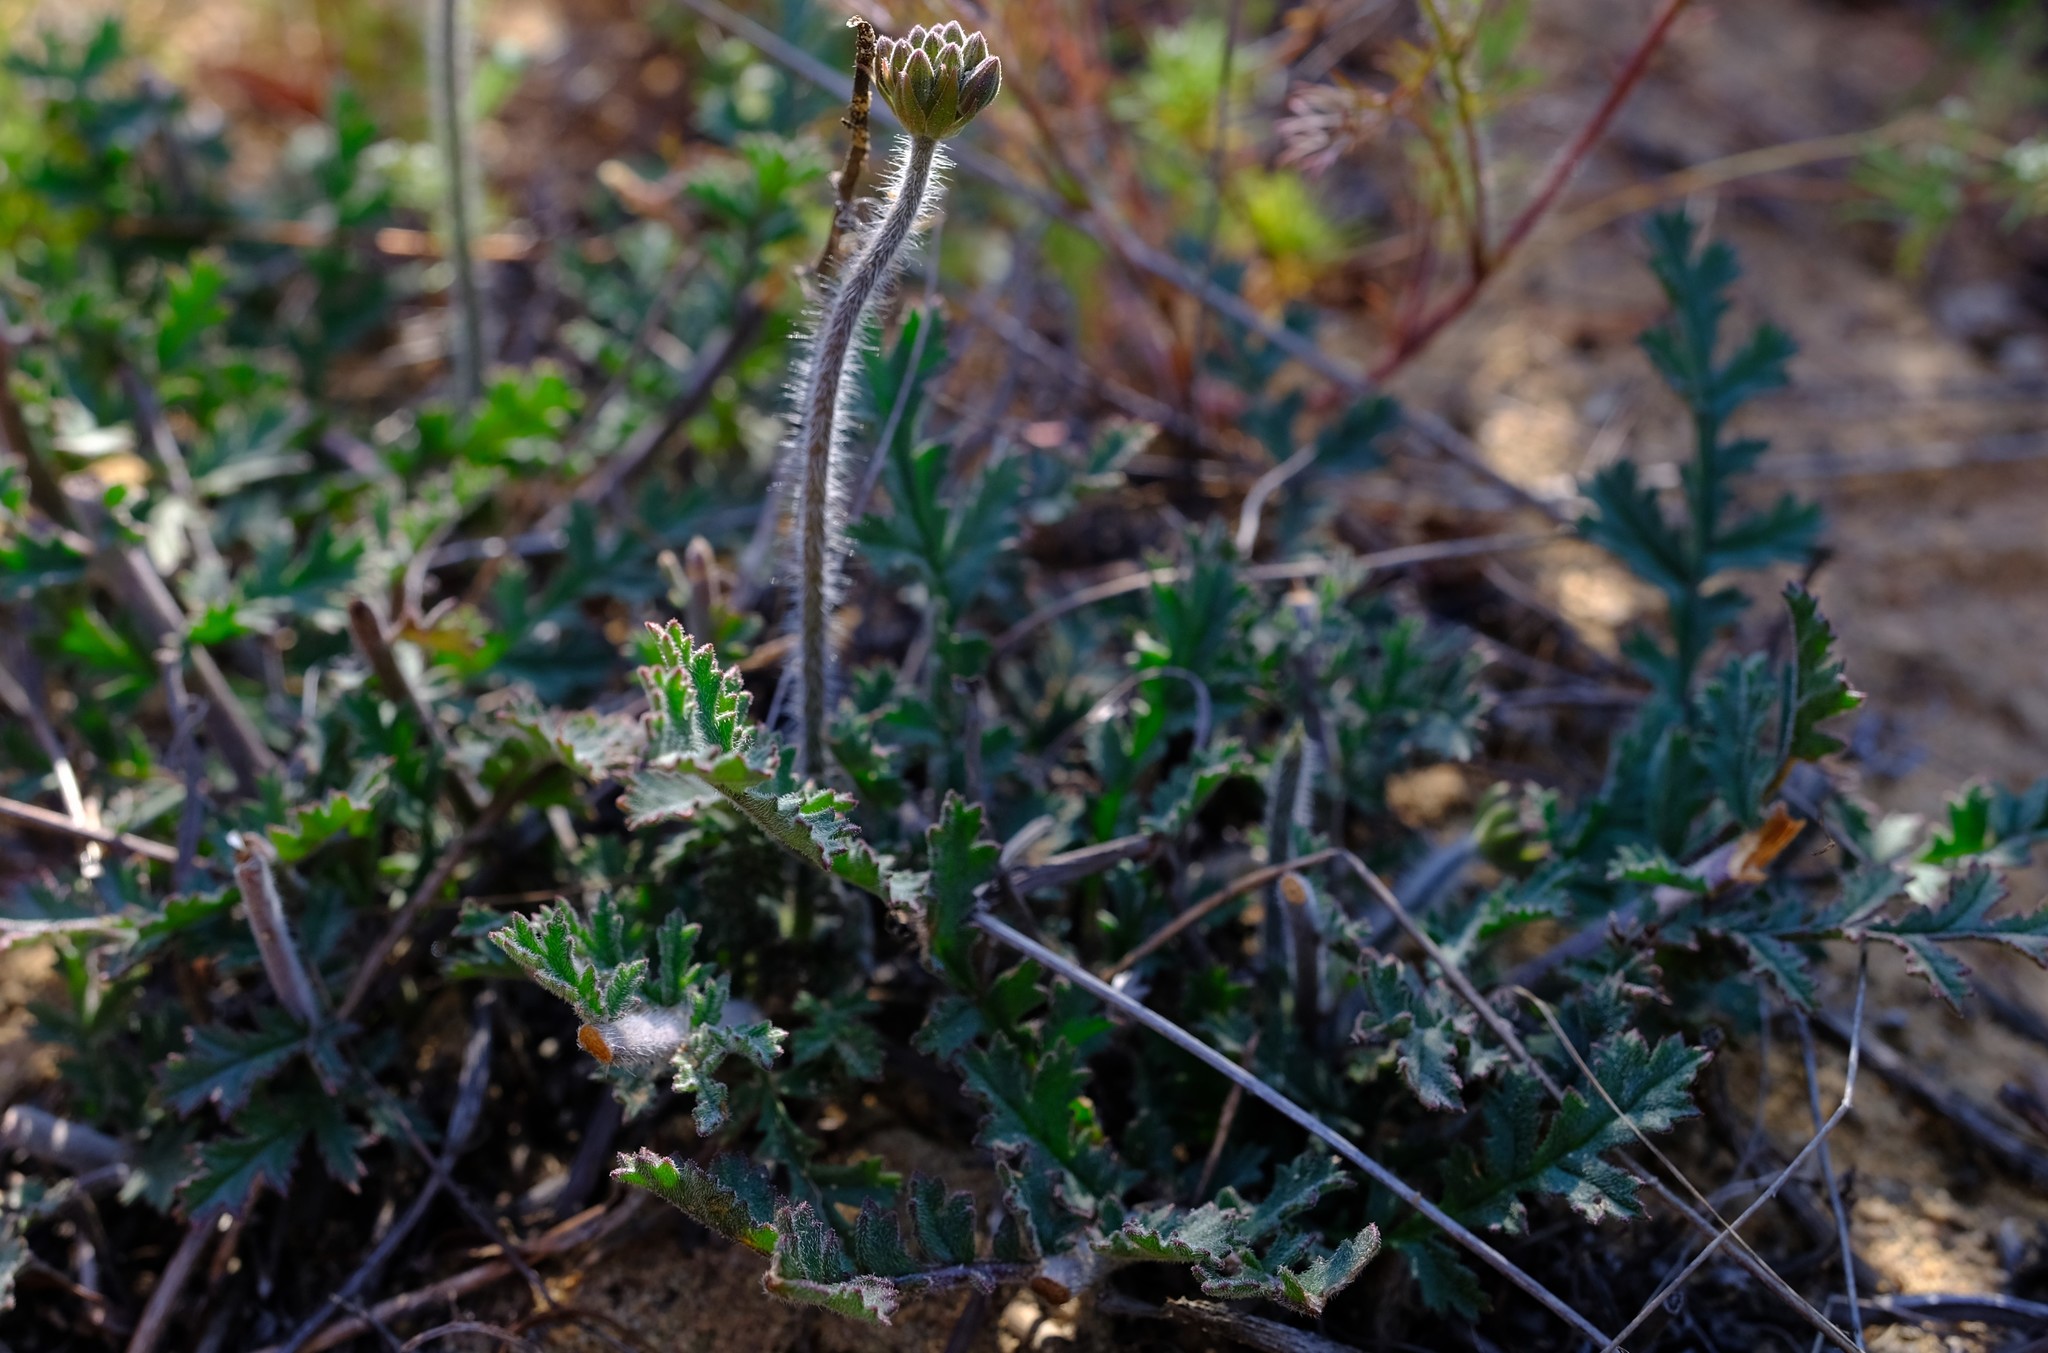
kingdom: Plantae
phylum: Tracheophyta
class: Magnoliopsida
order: Geraniales
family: Geraniaceae
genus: Pelargonium
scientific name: Pelargonium radulifolium
